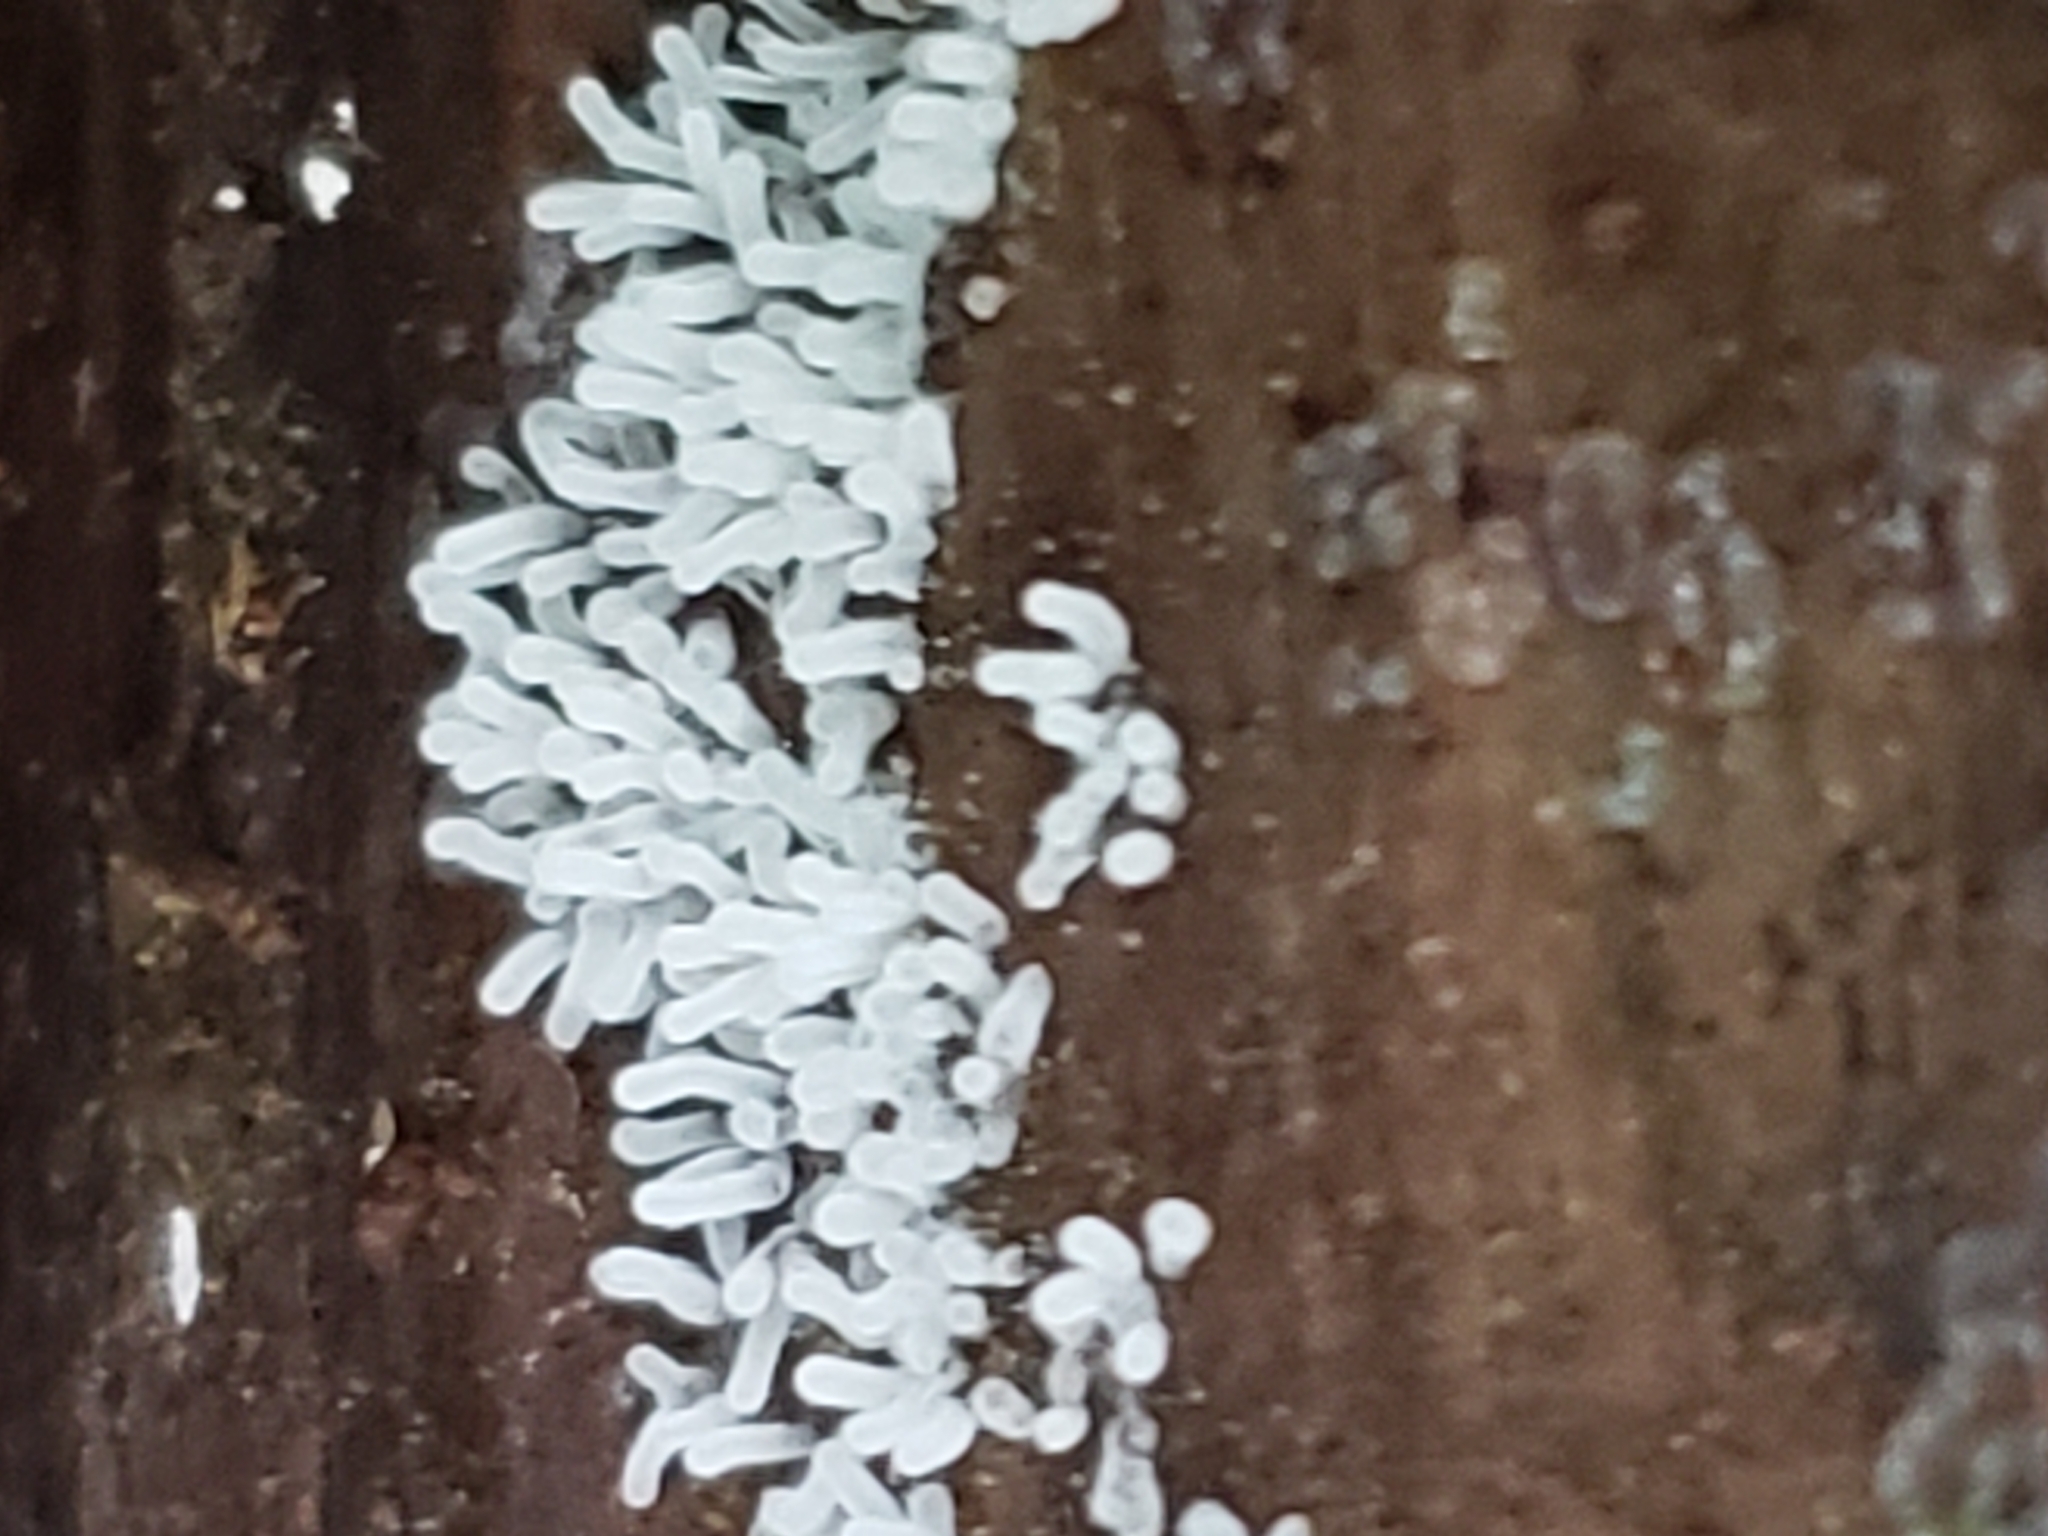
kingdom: Protozoa
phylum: Mycetozoa
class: Protosteliomycetes
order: Ceratiomyxales
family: Ceratiomyxaceae
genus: Ceratiomyxa
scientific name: Ceratiomyxa fruticulosa
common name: Honeycomb coral slime mold
